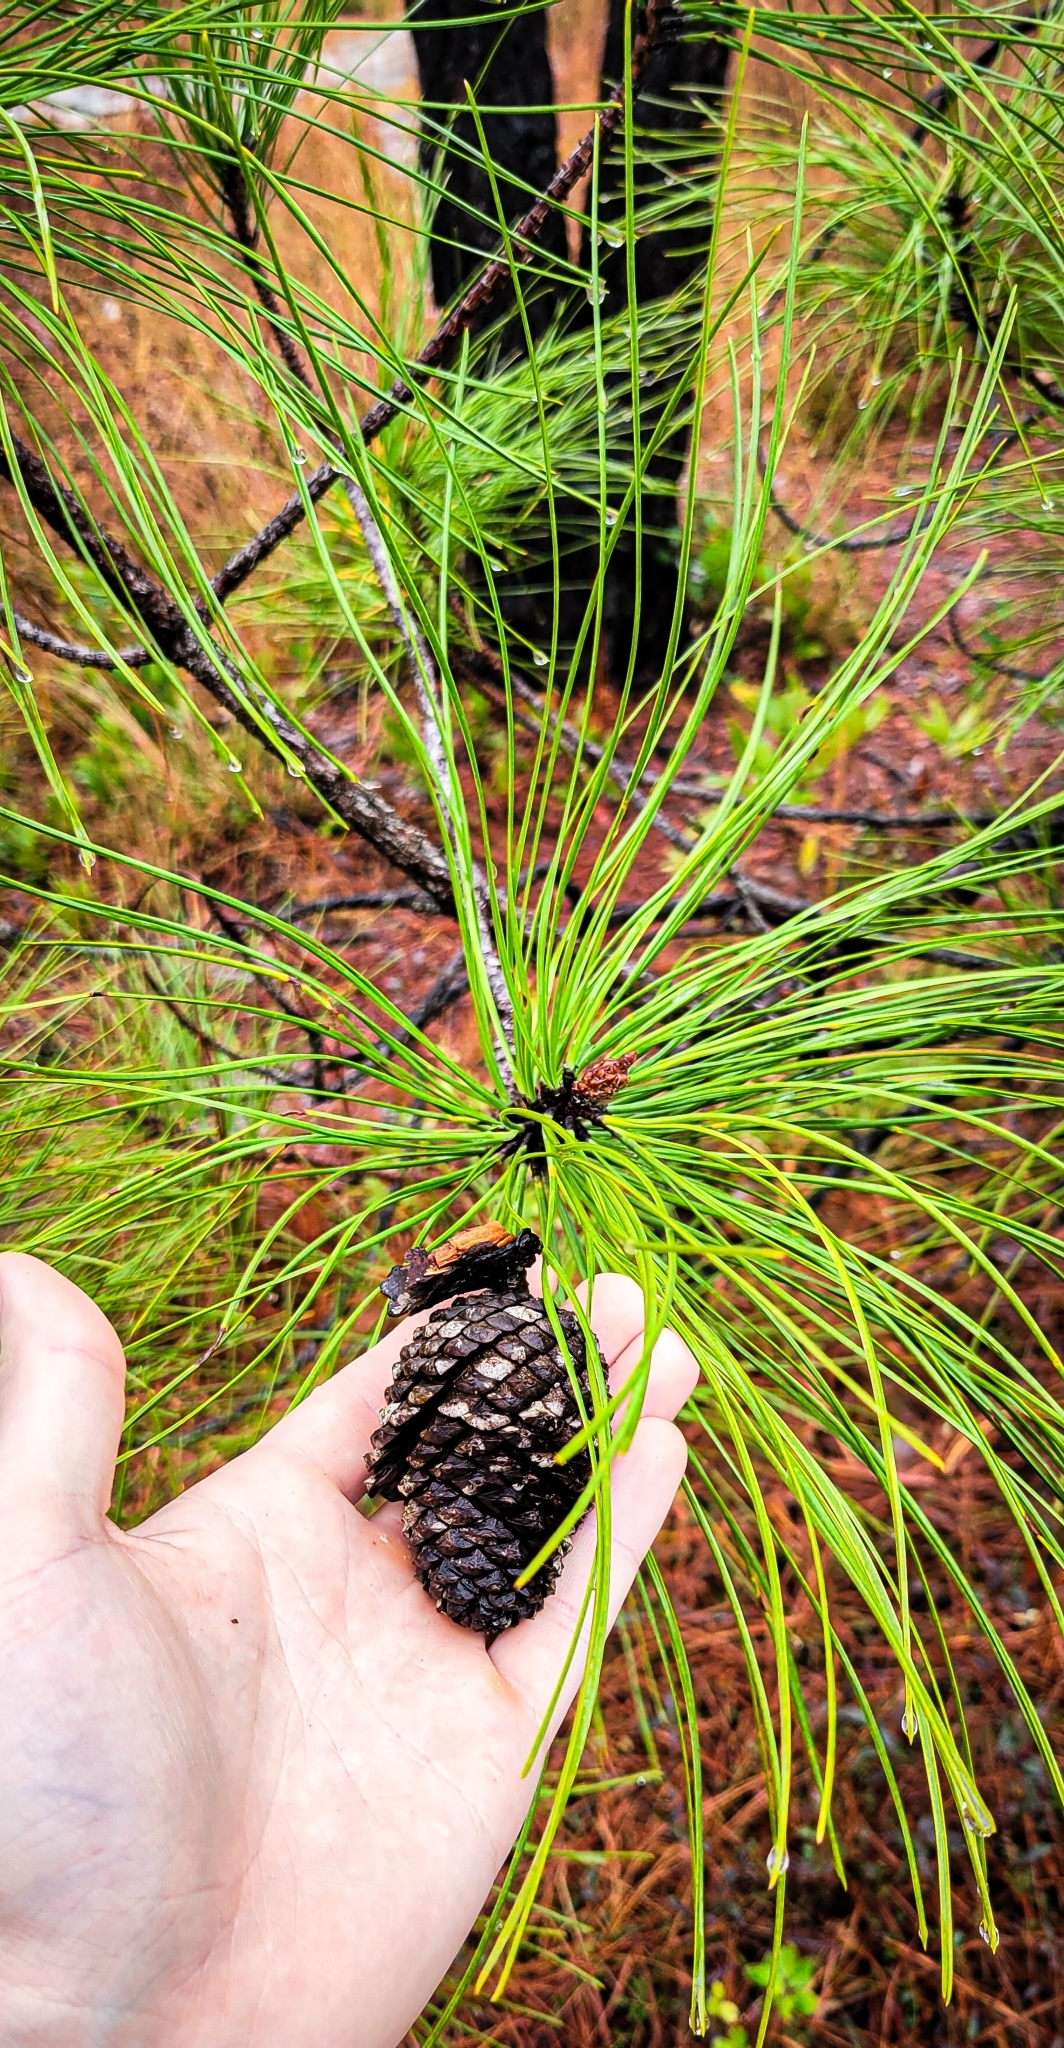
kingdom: Plantae
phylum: Tracheophyta
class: Pinopsida
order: Pinales
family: Pinaceae
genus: Pinus
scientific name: Pinus serotina
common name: Marsh pine
